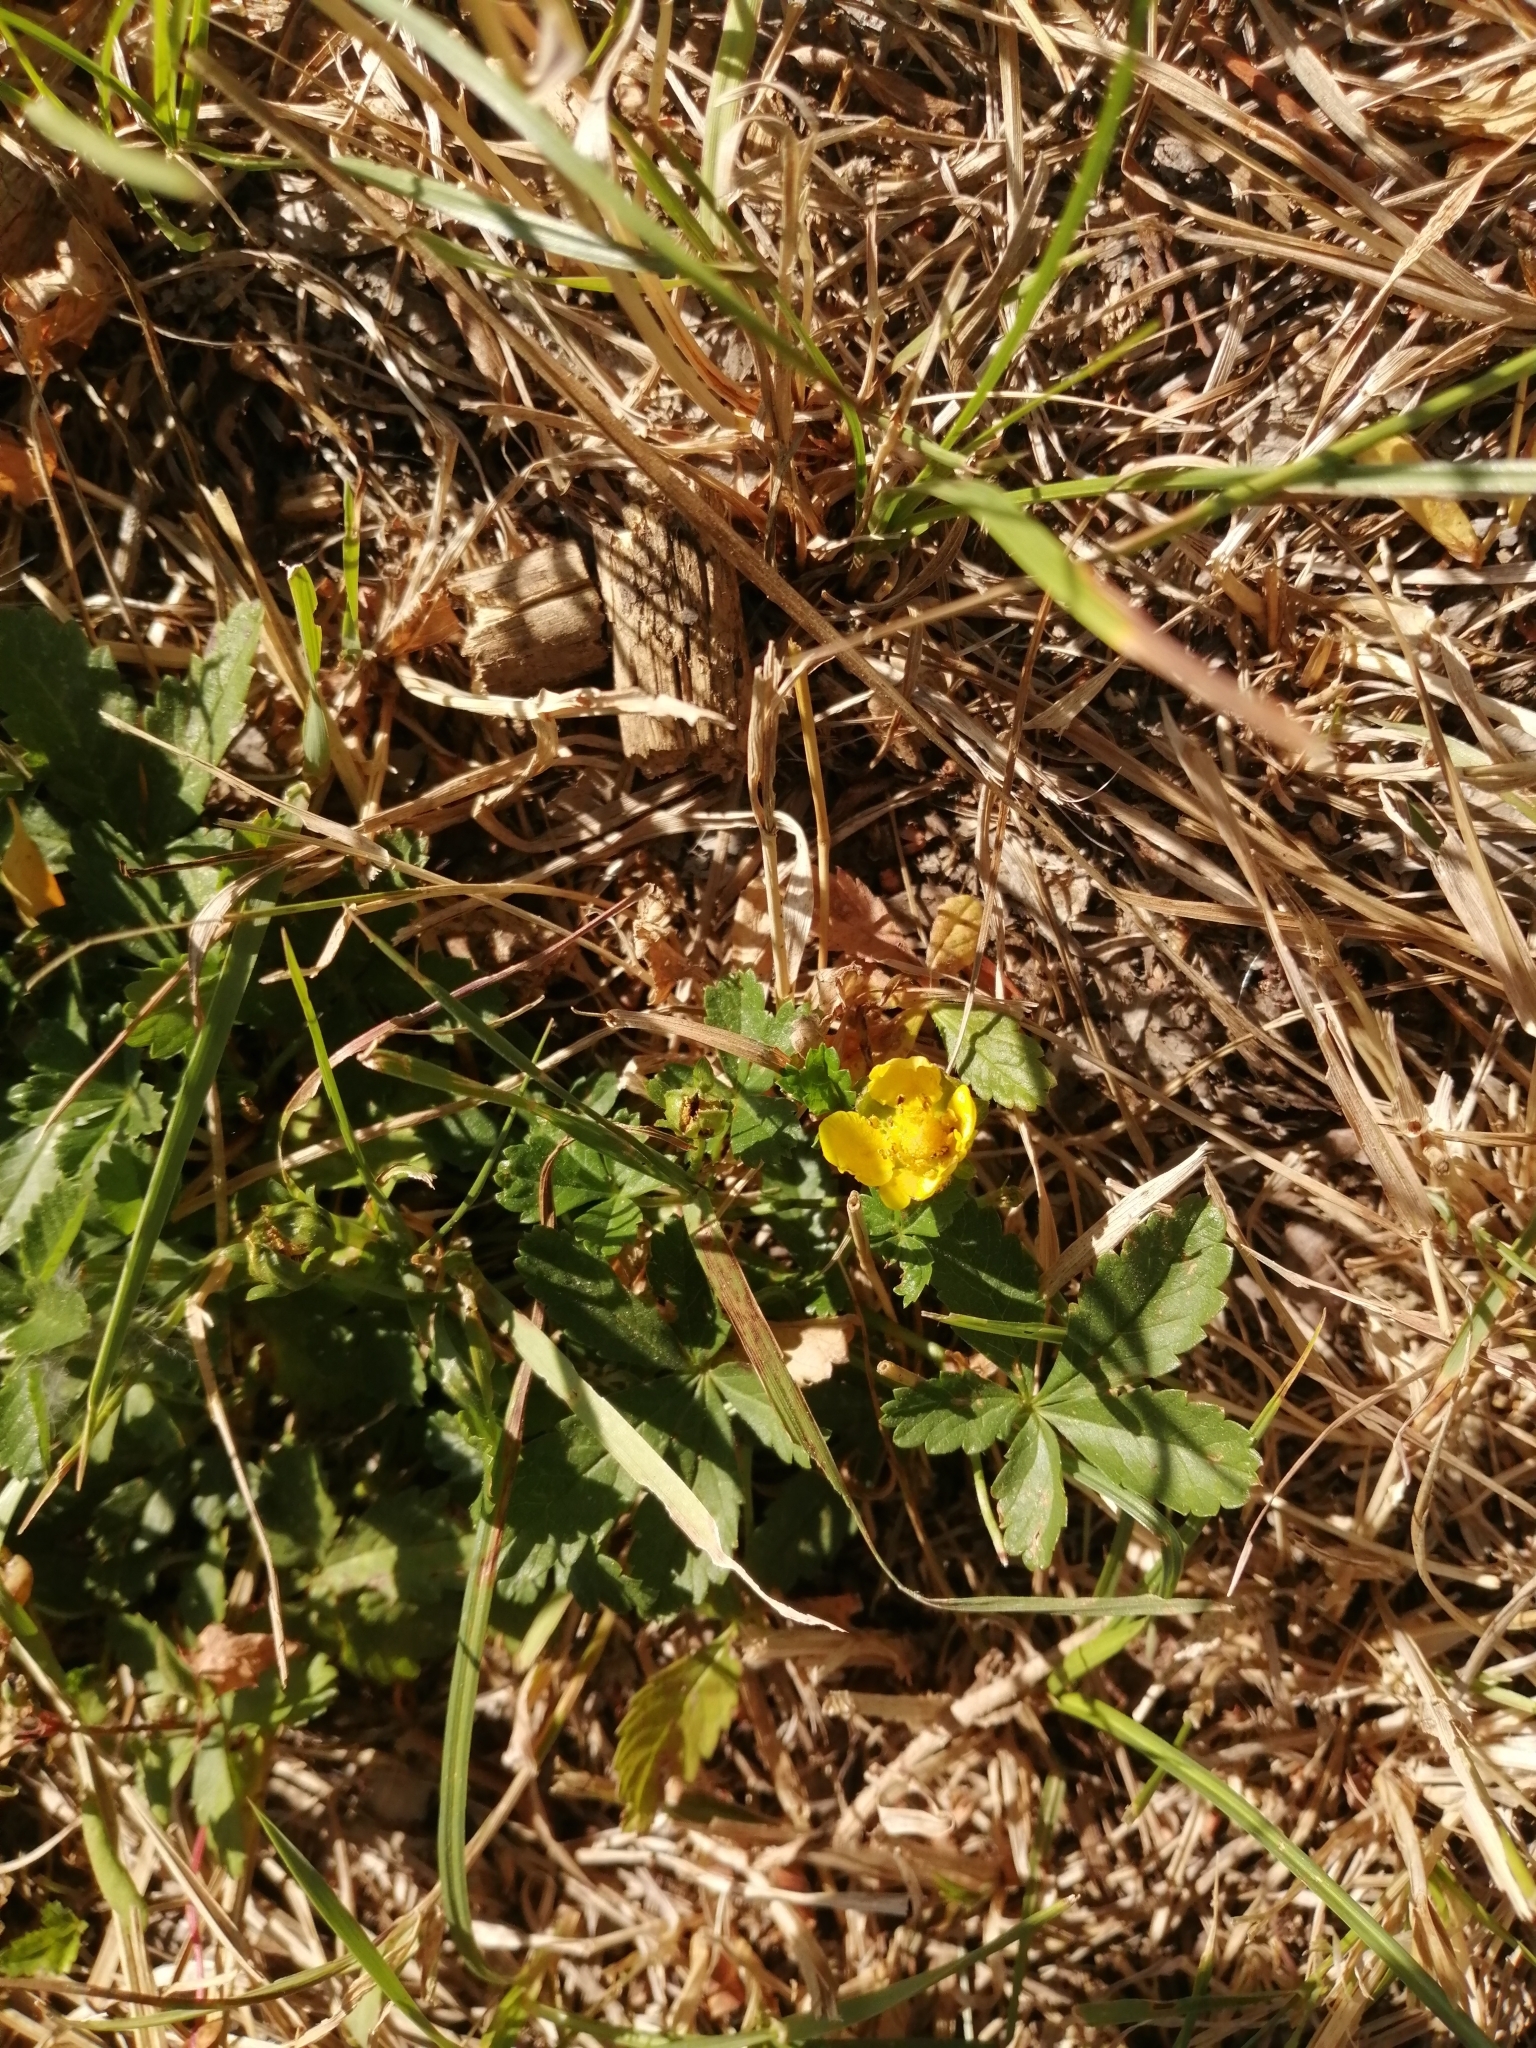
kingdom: Plantae
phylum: Tracheophyta
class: Magnoliopsida
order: Rosales
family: Rosaceae
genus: Potentilla
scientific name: Potentilla reptans
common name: Creeping cinquefoil
